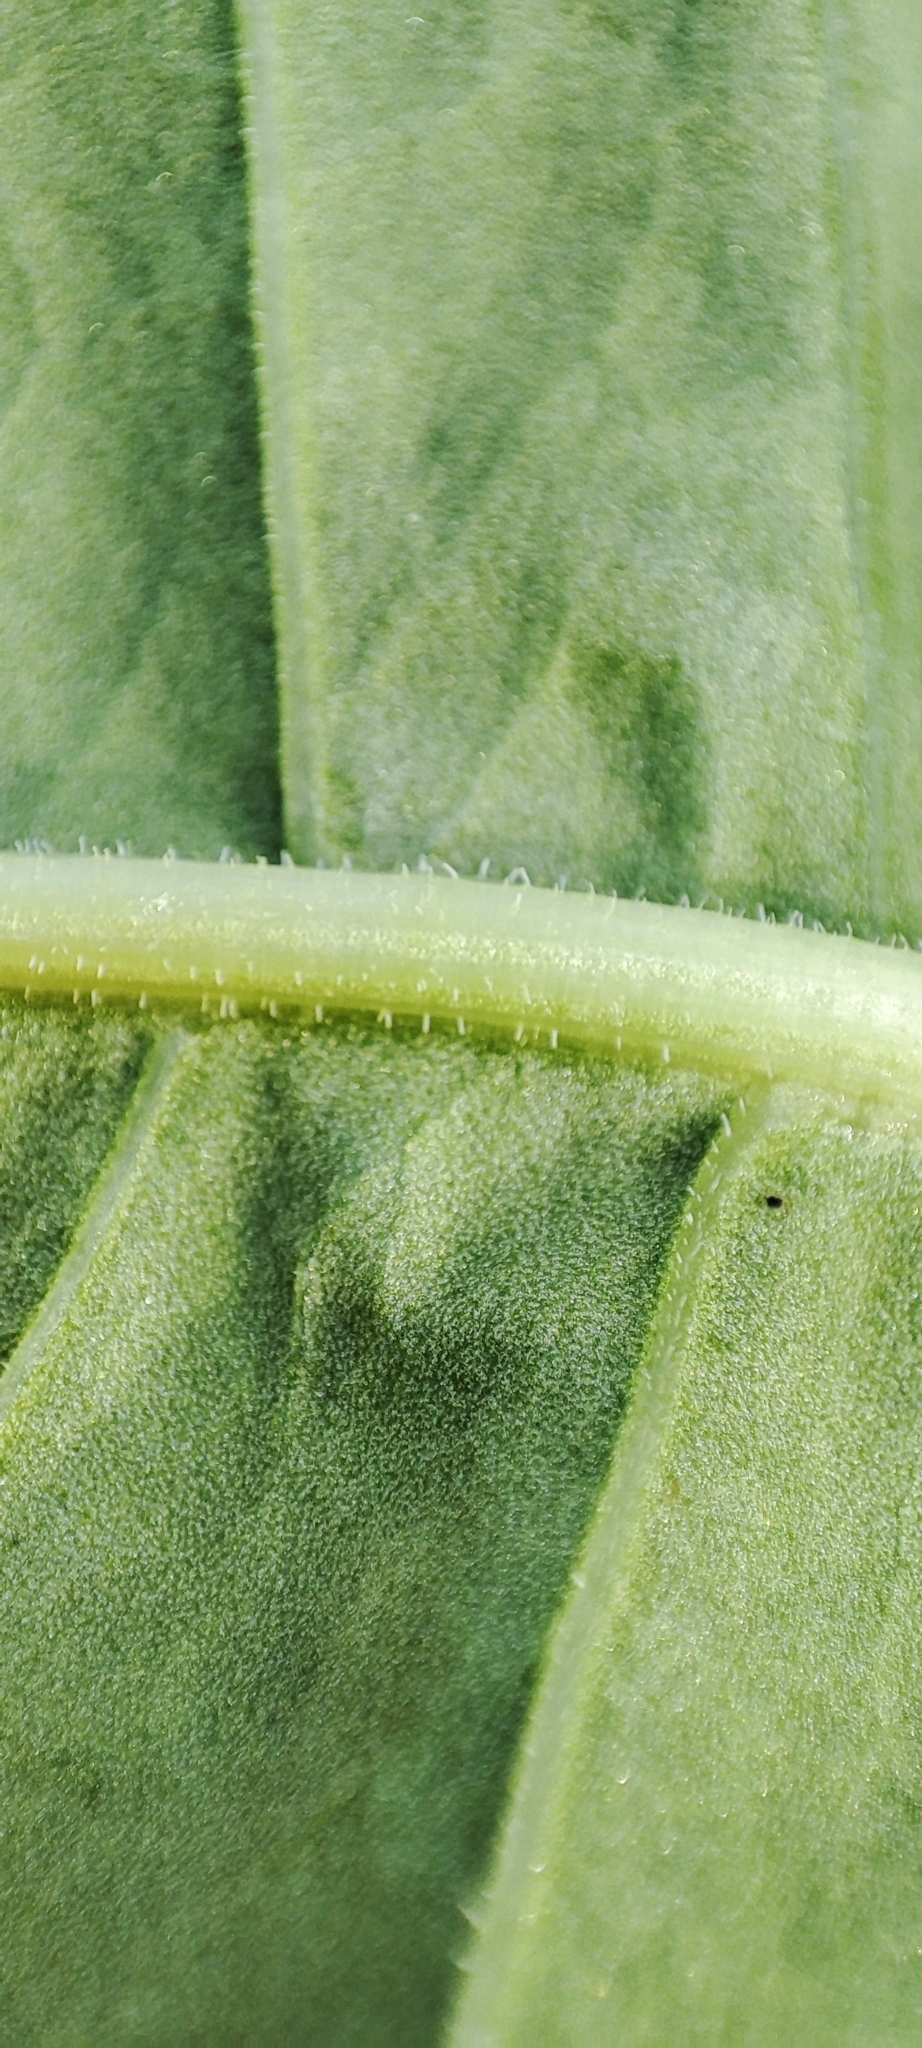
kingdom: Plantae
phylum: Tracheophyta
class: Magnoliopsida
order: Caryophyllales
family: Polygonaceae
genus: Rumex
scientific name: Rumex confertus
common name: Russian dock
